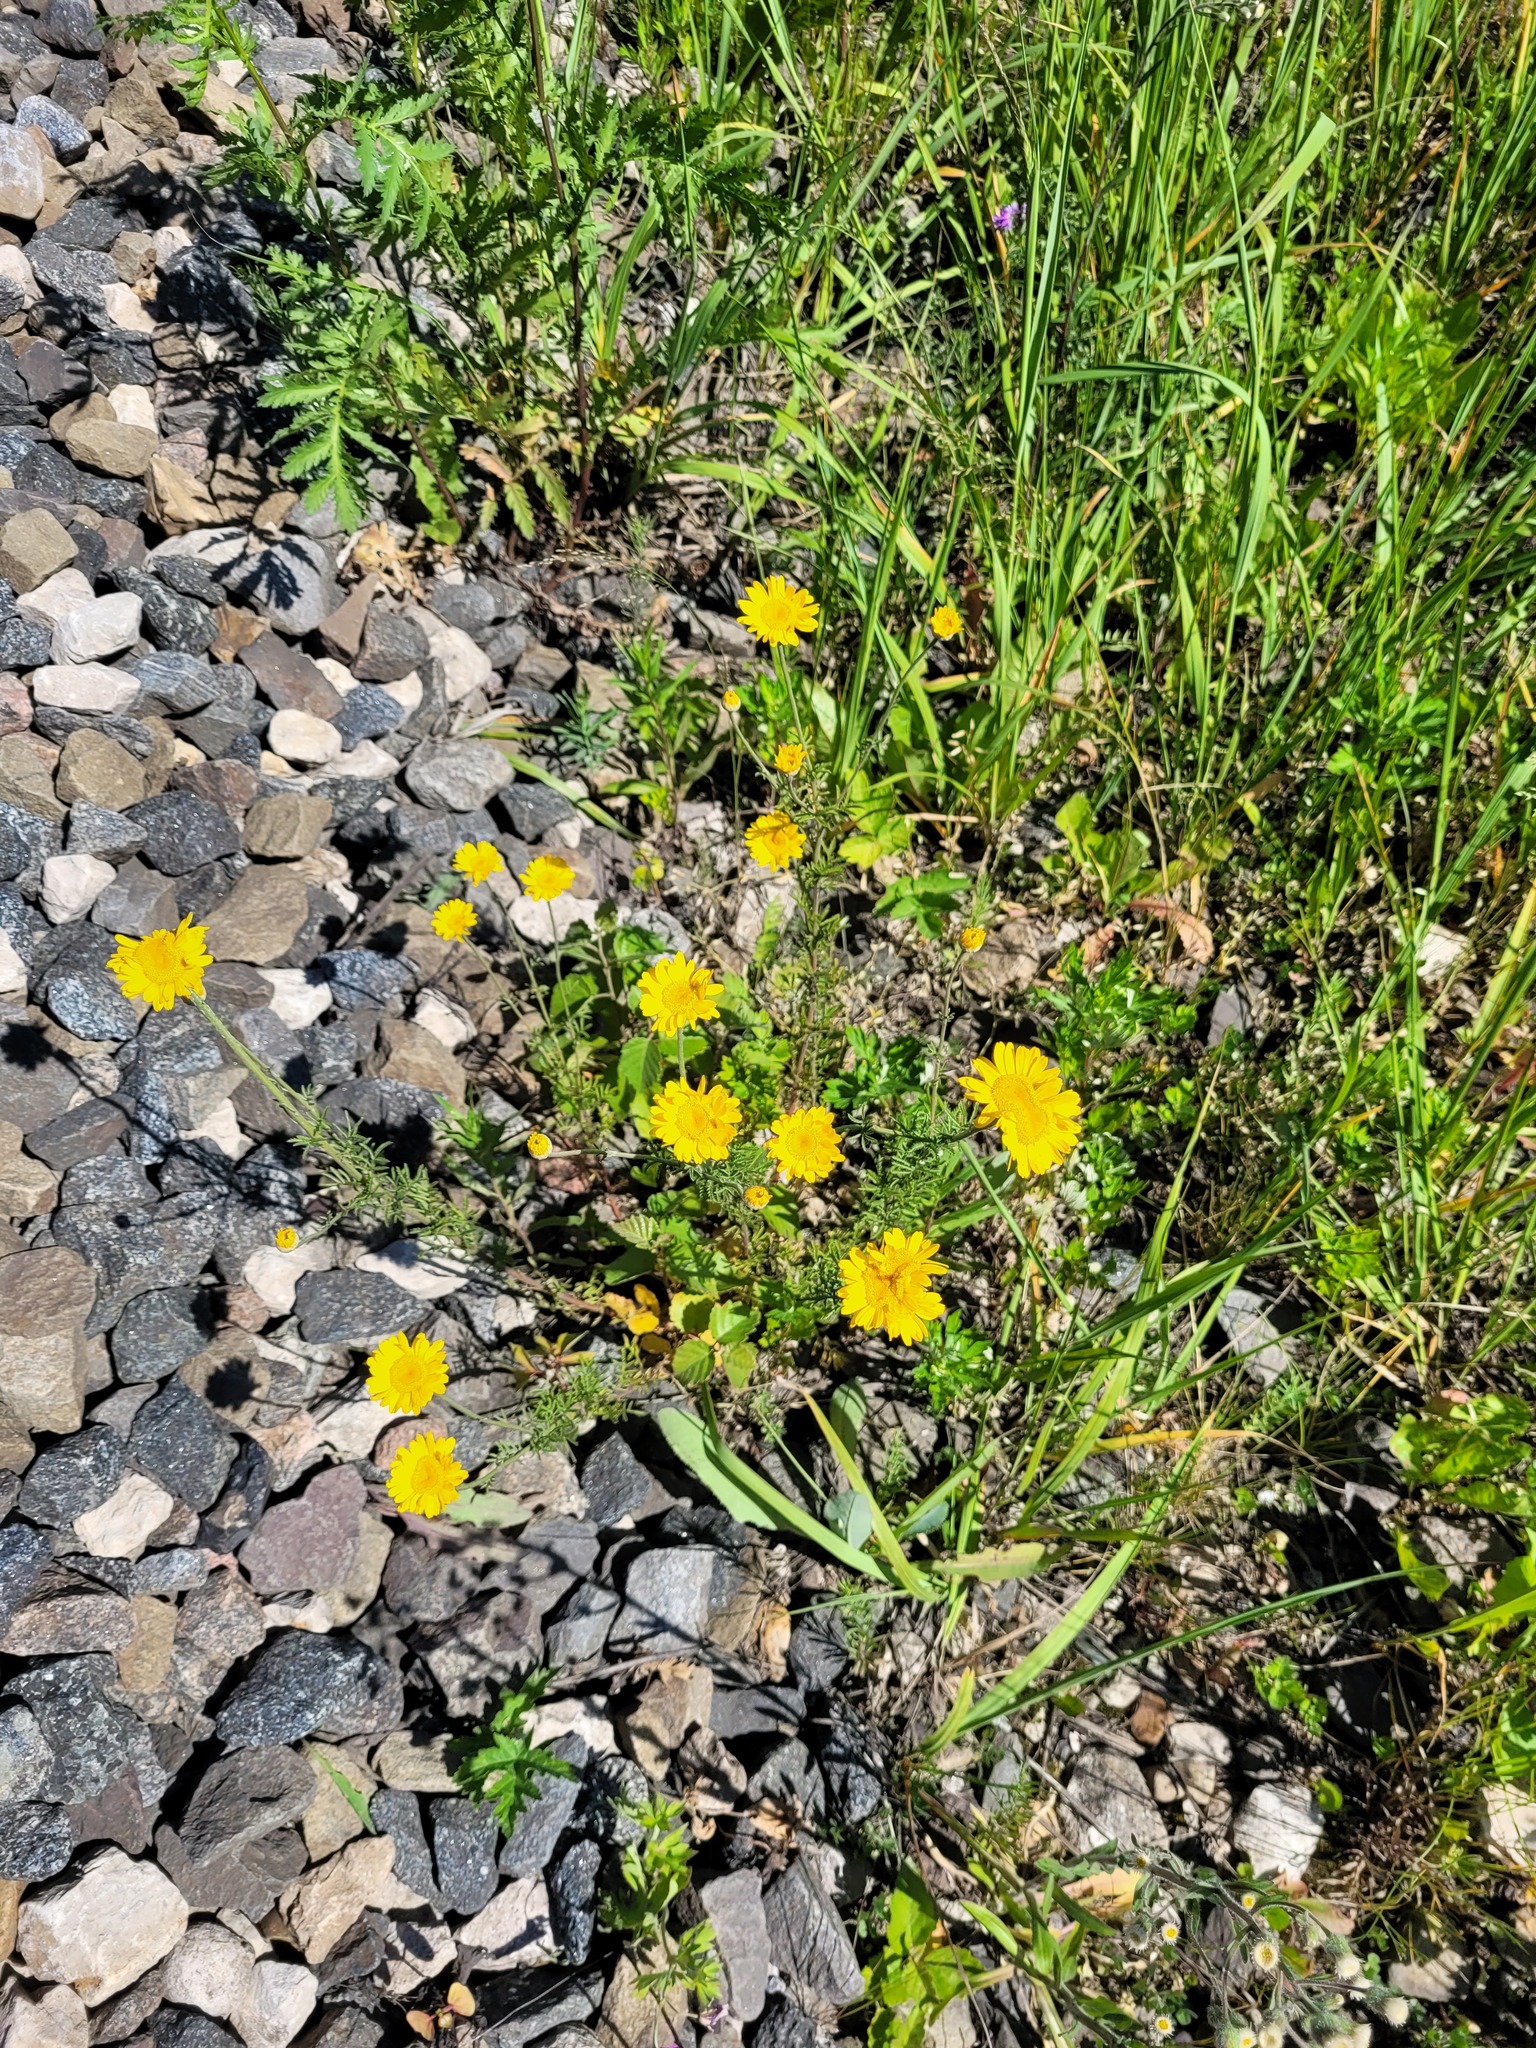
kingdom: Plantae
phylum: Tracheophyta
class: Magnoliopsida
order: Asterales
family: Asteraceae
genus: Cota
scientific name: Cota tinctoria
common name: Golden chamomile
